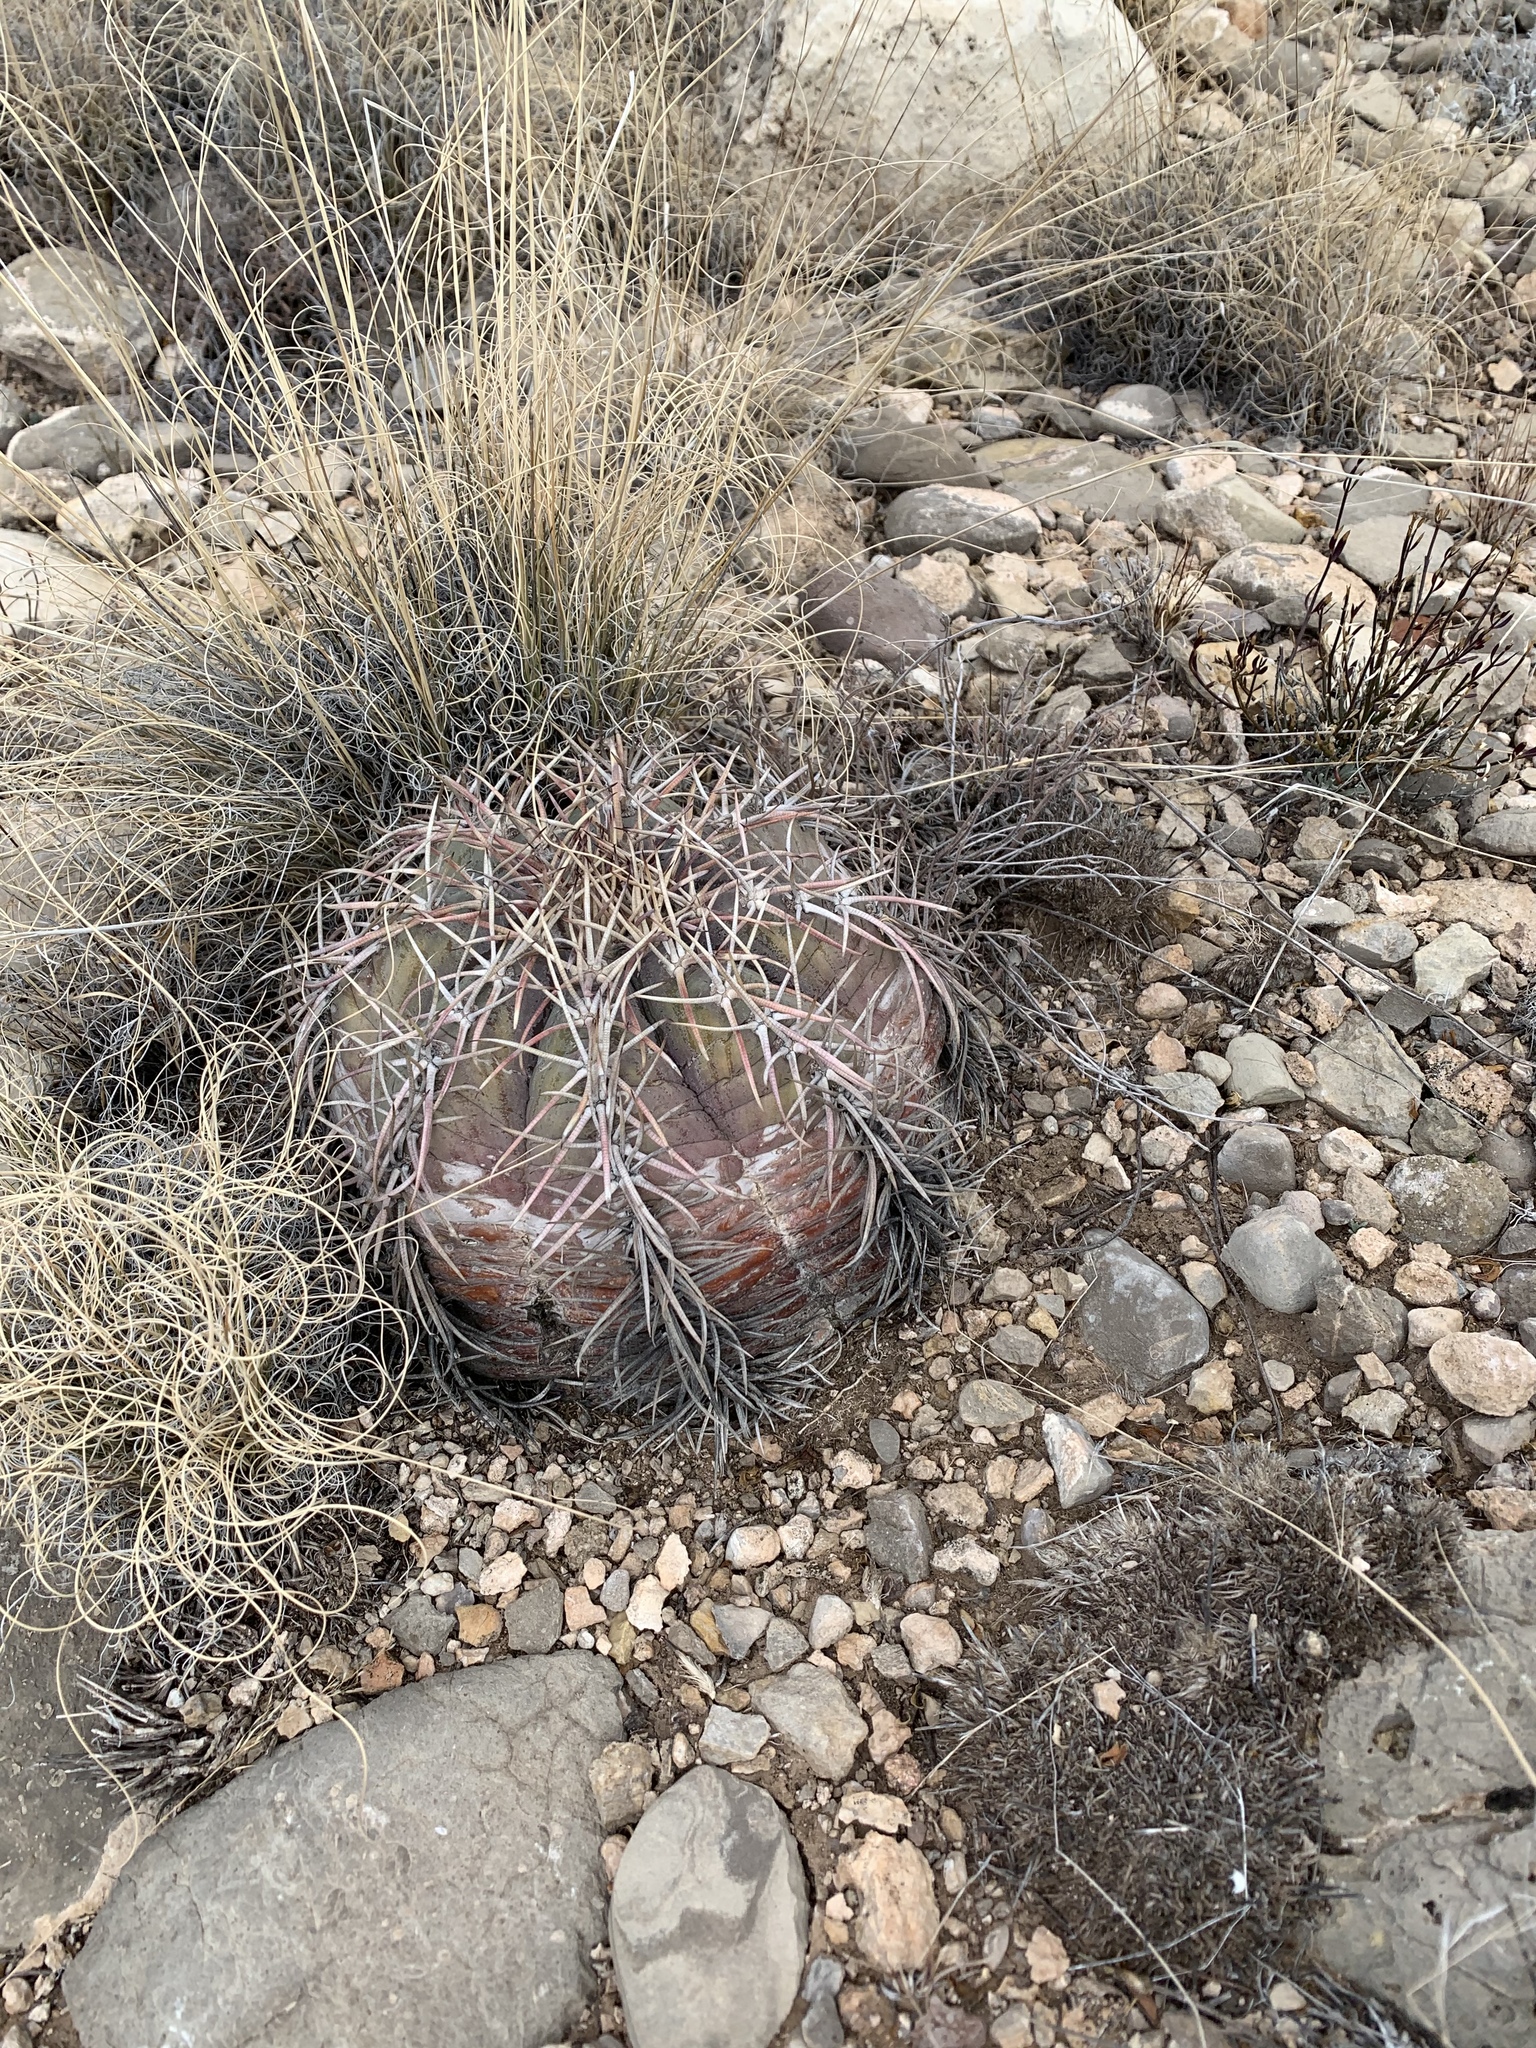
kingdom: Plantae
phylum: Tracheophyta
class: Magnoliopsida
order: Caryophyllales
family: Cactaceae
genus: Echinocactus
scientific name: Echinocactus horizonthalonius
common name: Devilshead
